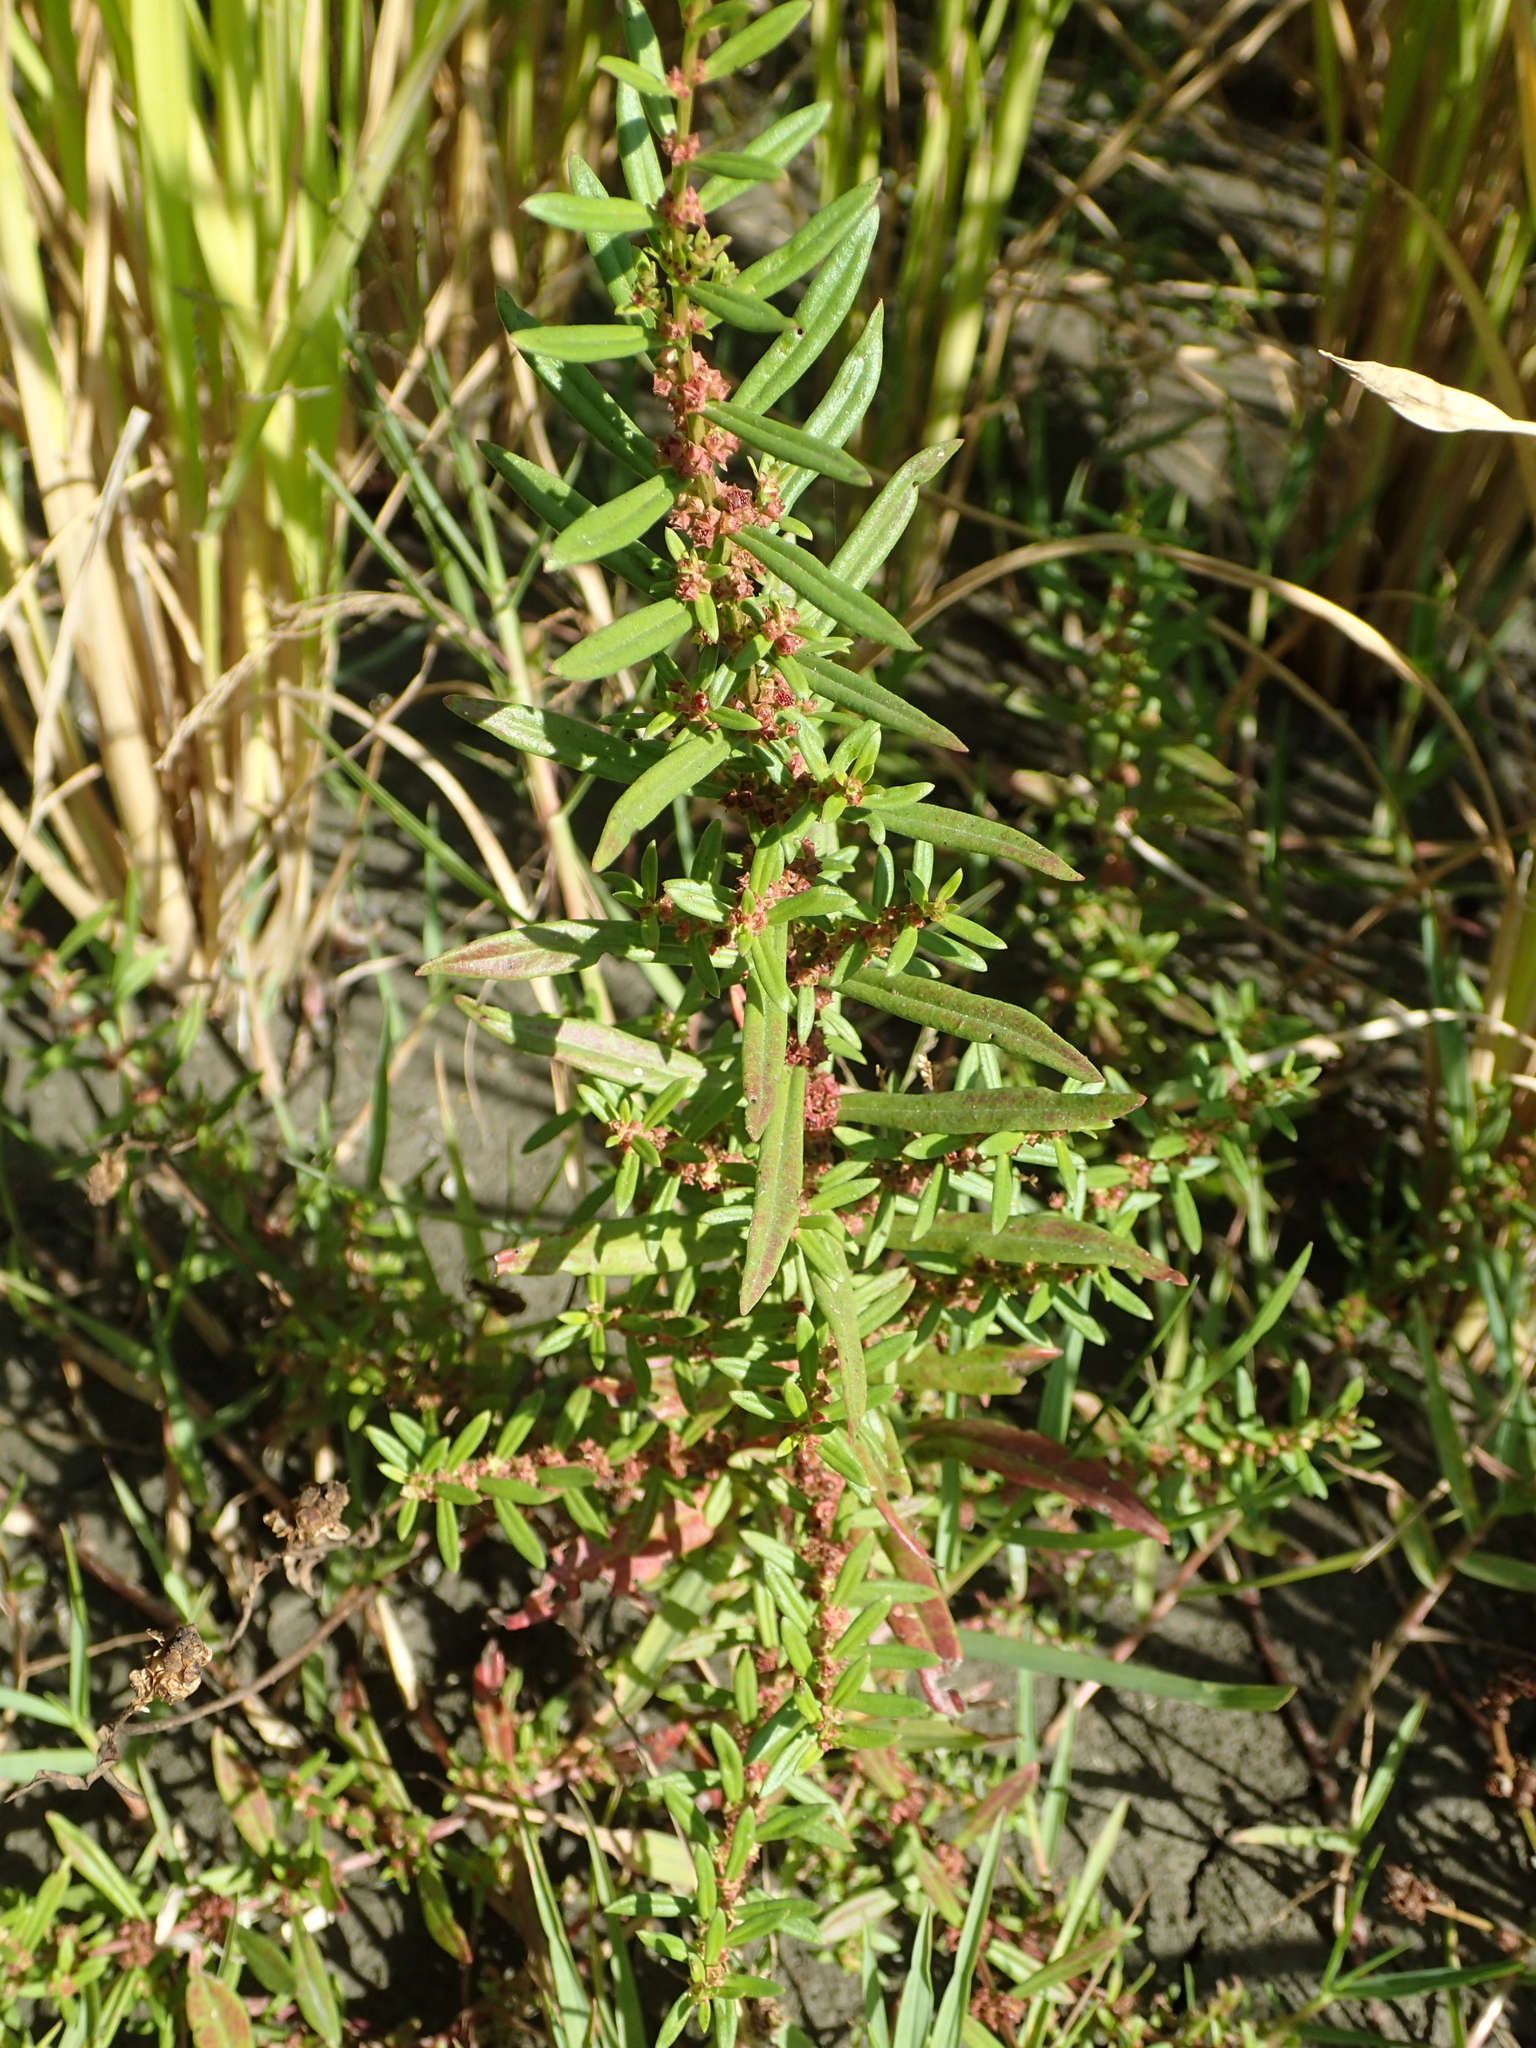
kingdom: Plantae
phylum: Tracheophyta
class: Magnoliopsida
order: Myrtales
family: Lythraceae
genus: Ammannia
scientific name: Ammannia auriculata
